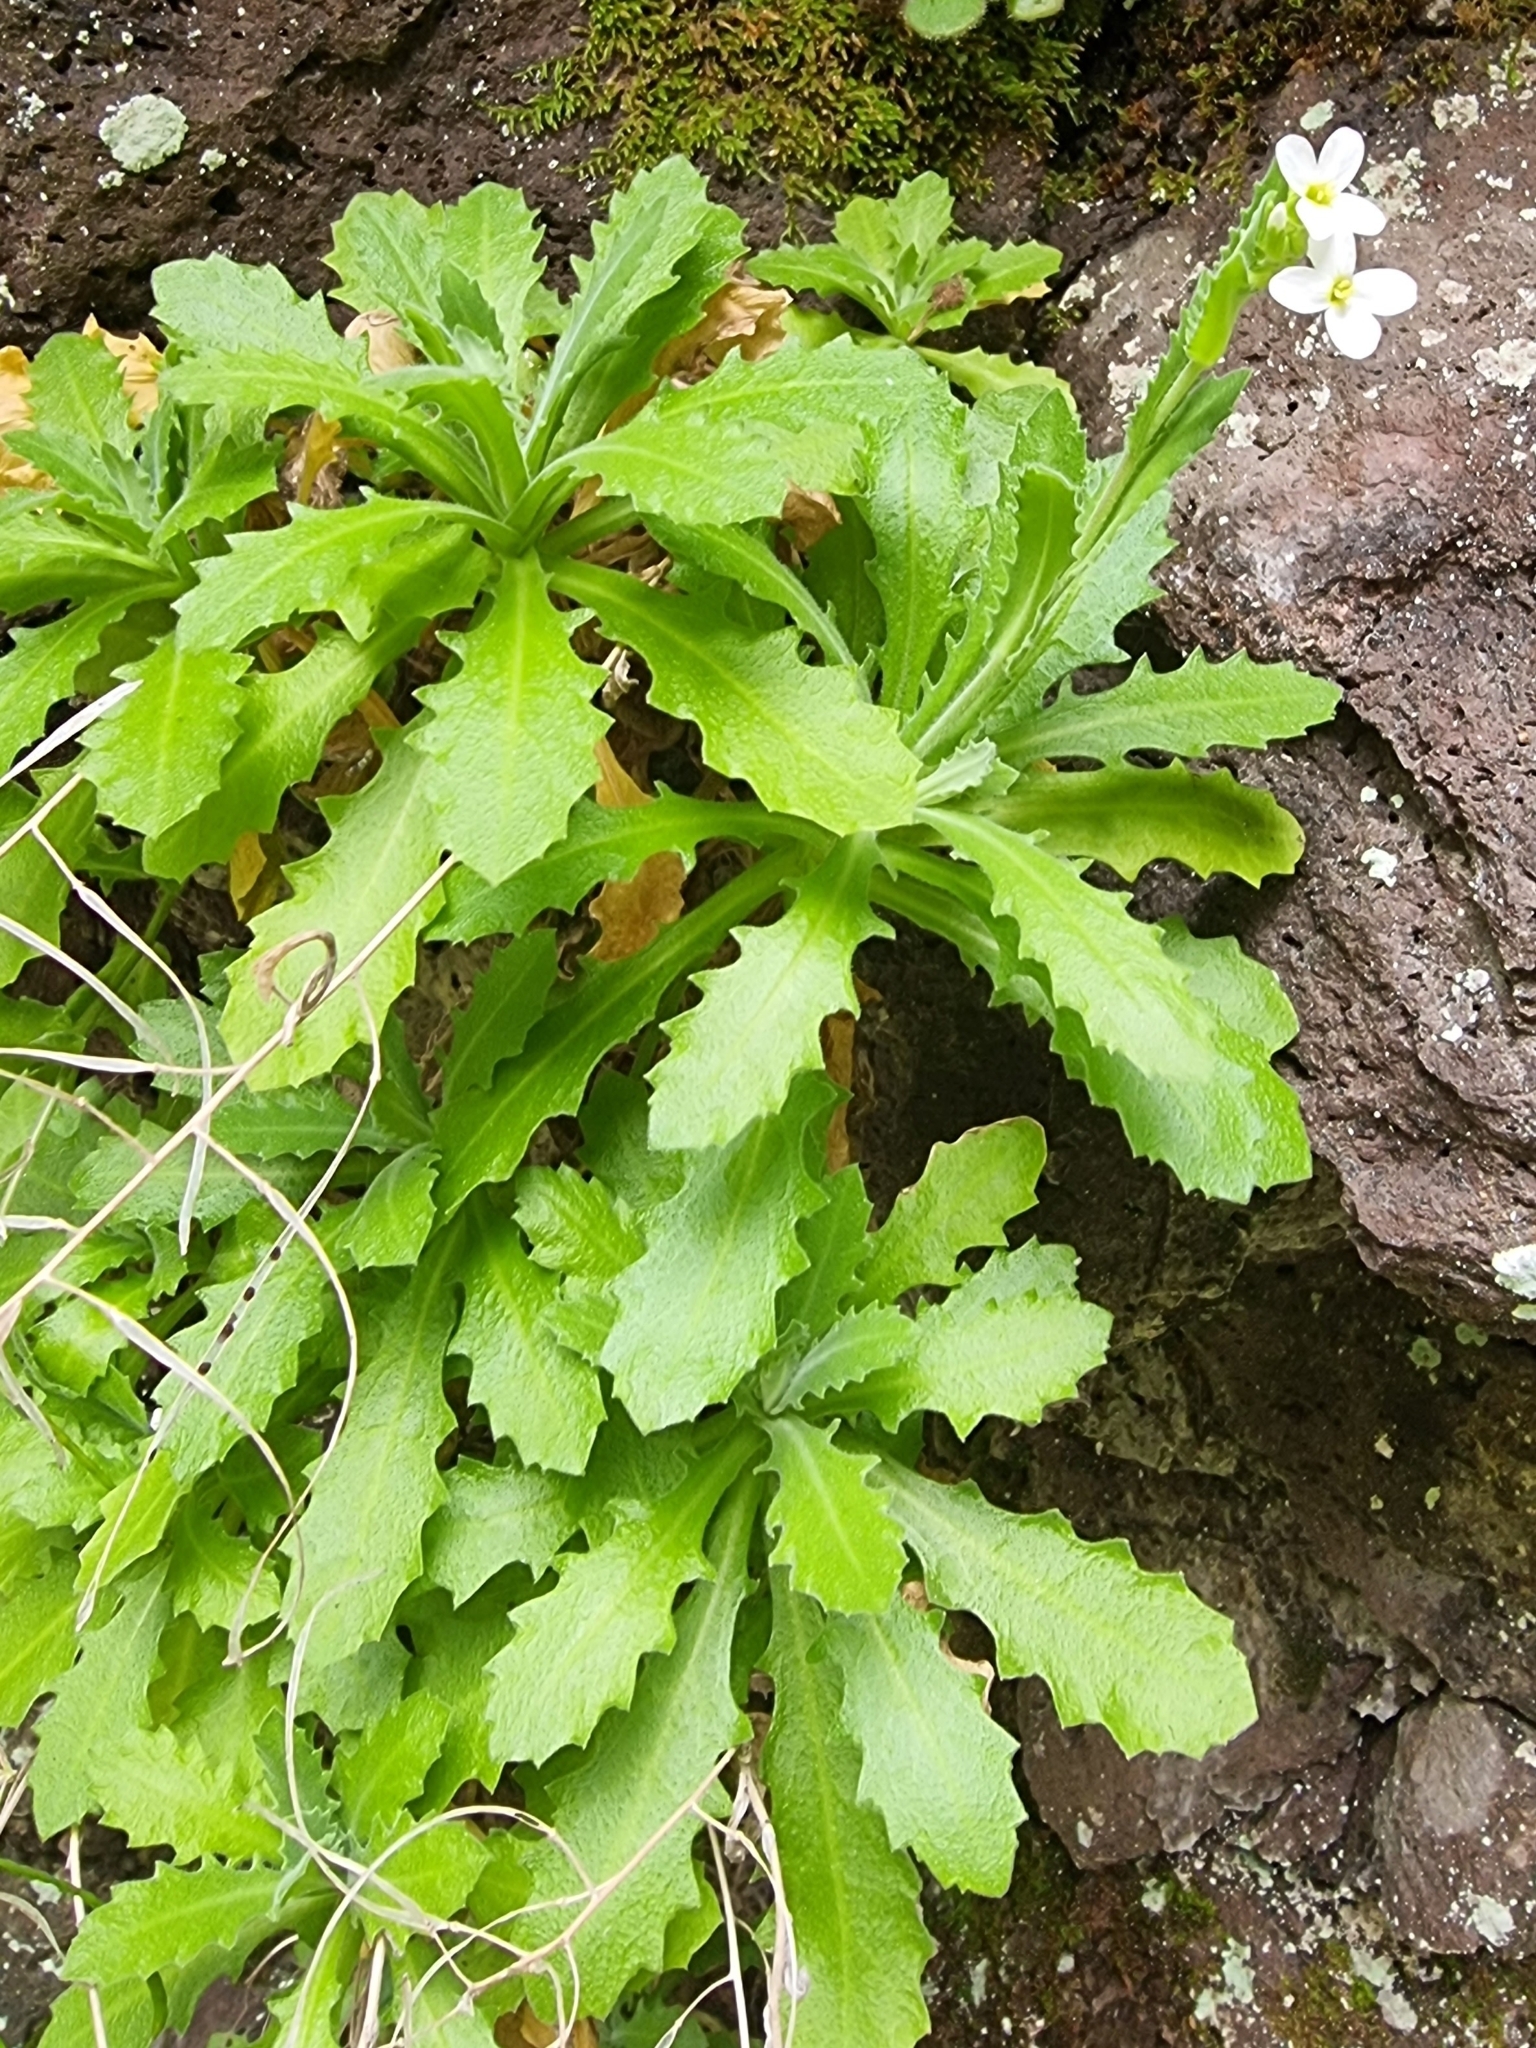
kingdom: Plantae
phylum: Tracheophyta
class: Magnoliopsida
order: Brassicales
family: Brassicaceae
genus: Arabis
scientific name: Arabis alpina
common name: Alpine rock-cress
